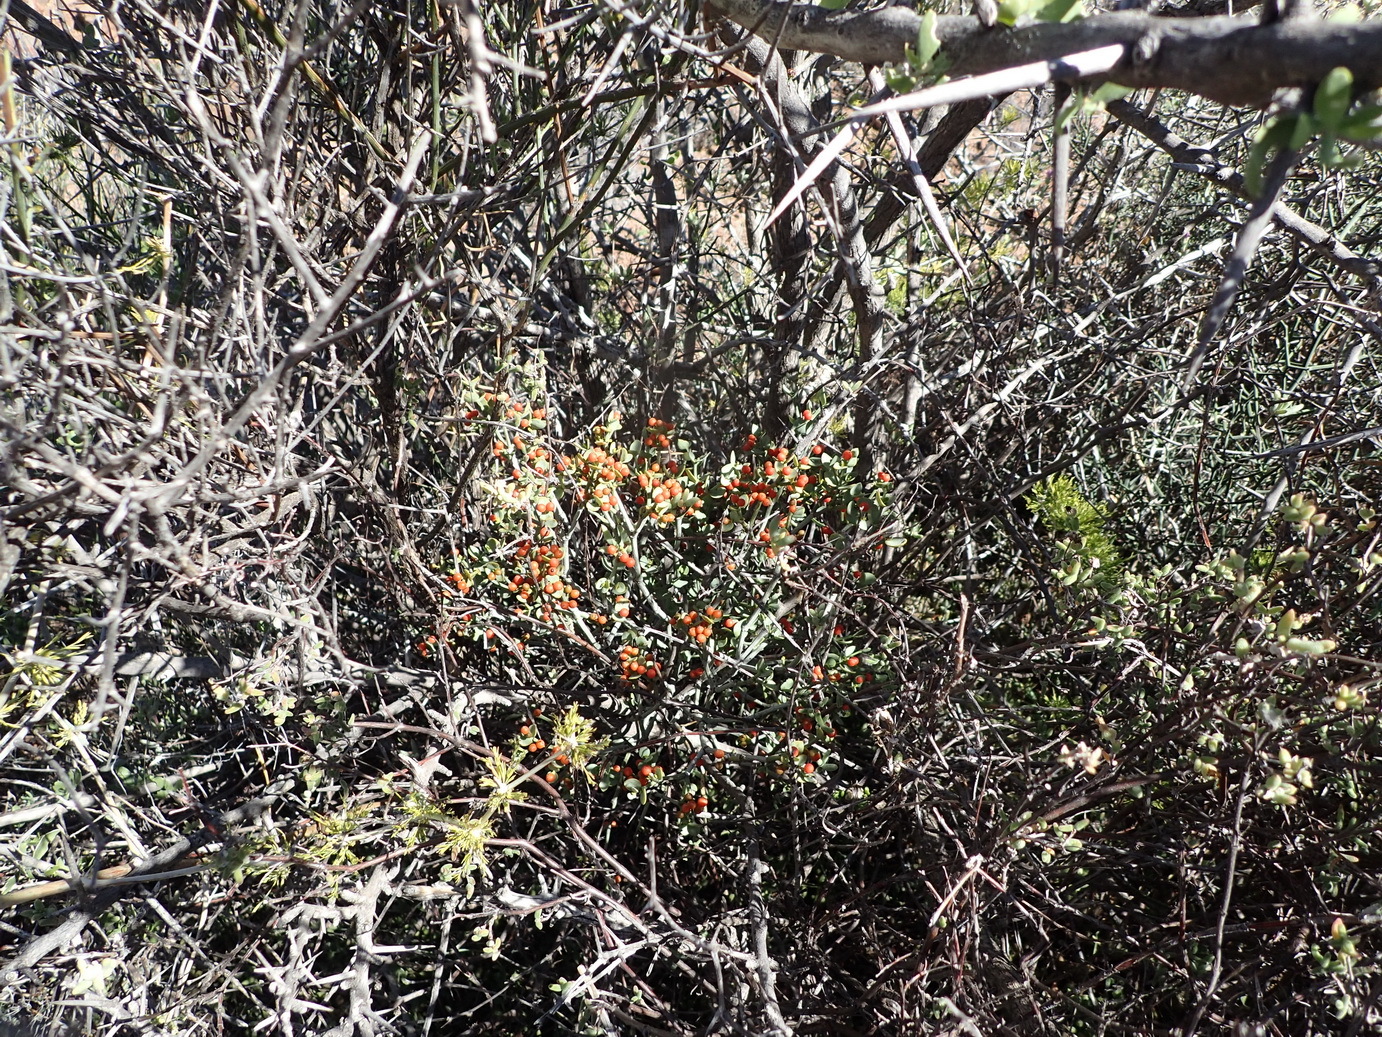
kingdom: Plantae
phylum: Tracheophyta
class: Magnoliopsida
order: Santalales
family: Viscaceae
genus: Viscum
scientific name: Viscum rotundifolium
